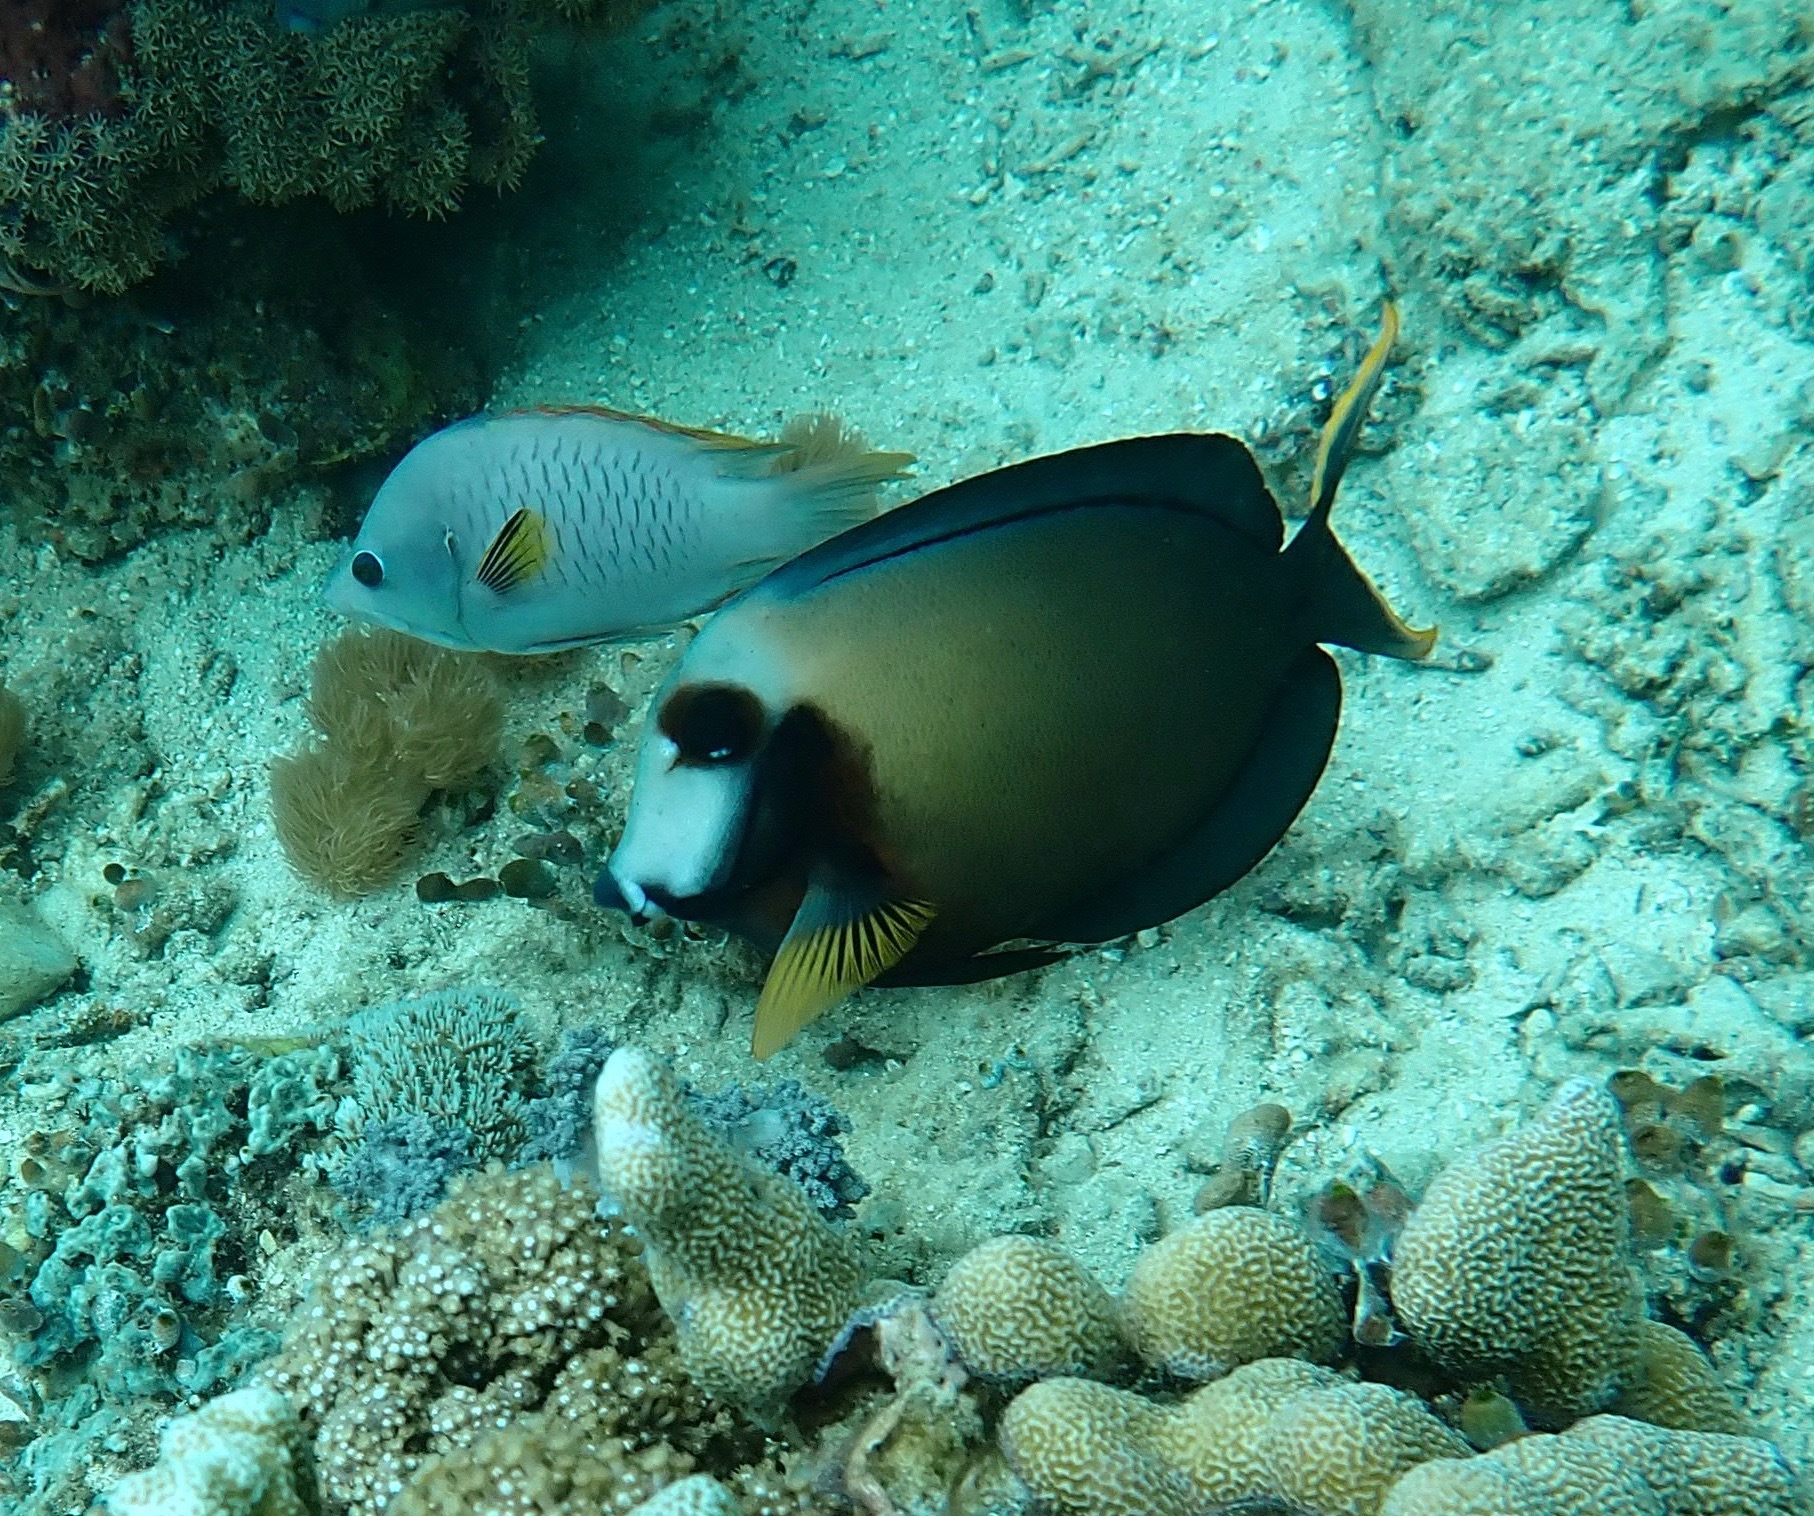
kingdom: Animalia
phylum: Chordata
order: Perciformes
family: Acanthuridae
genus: Acanthurus
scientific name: Acanthurus pyroferus
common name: Chocolate surgeonfish
